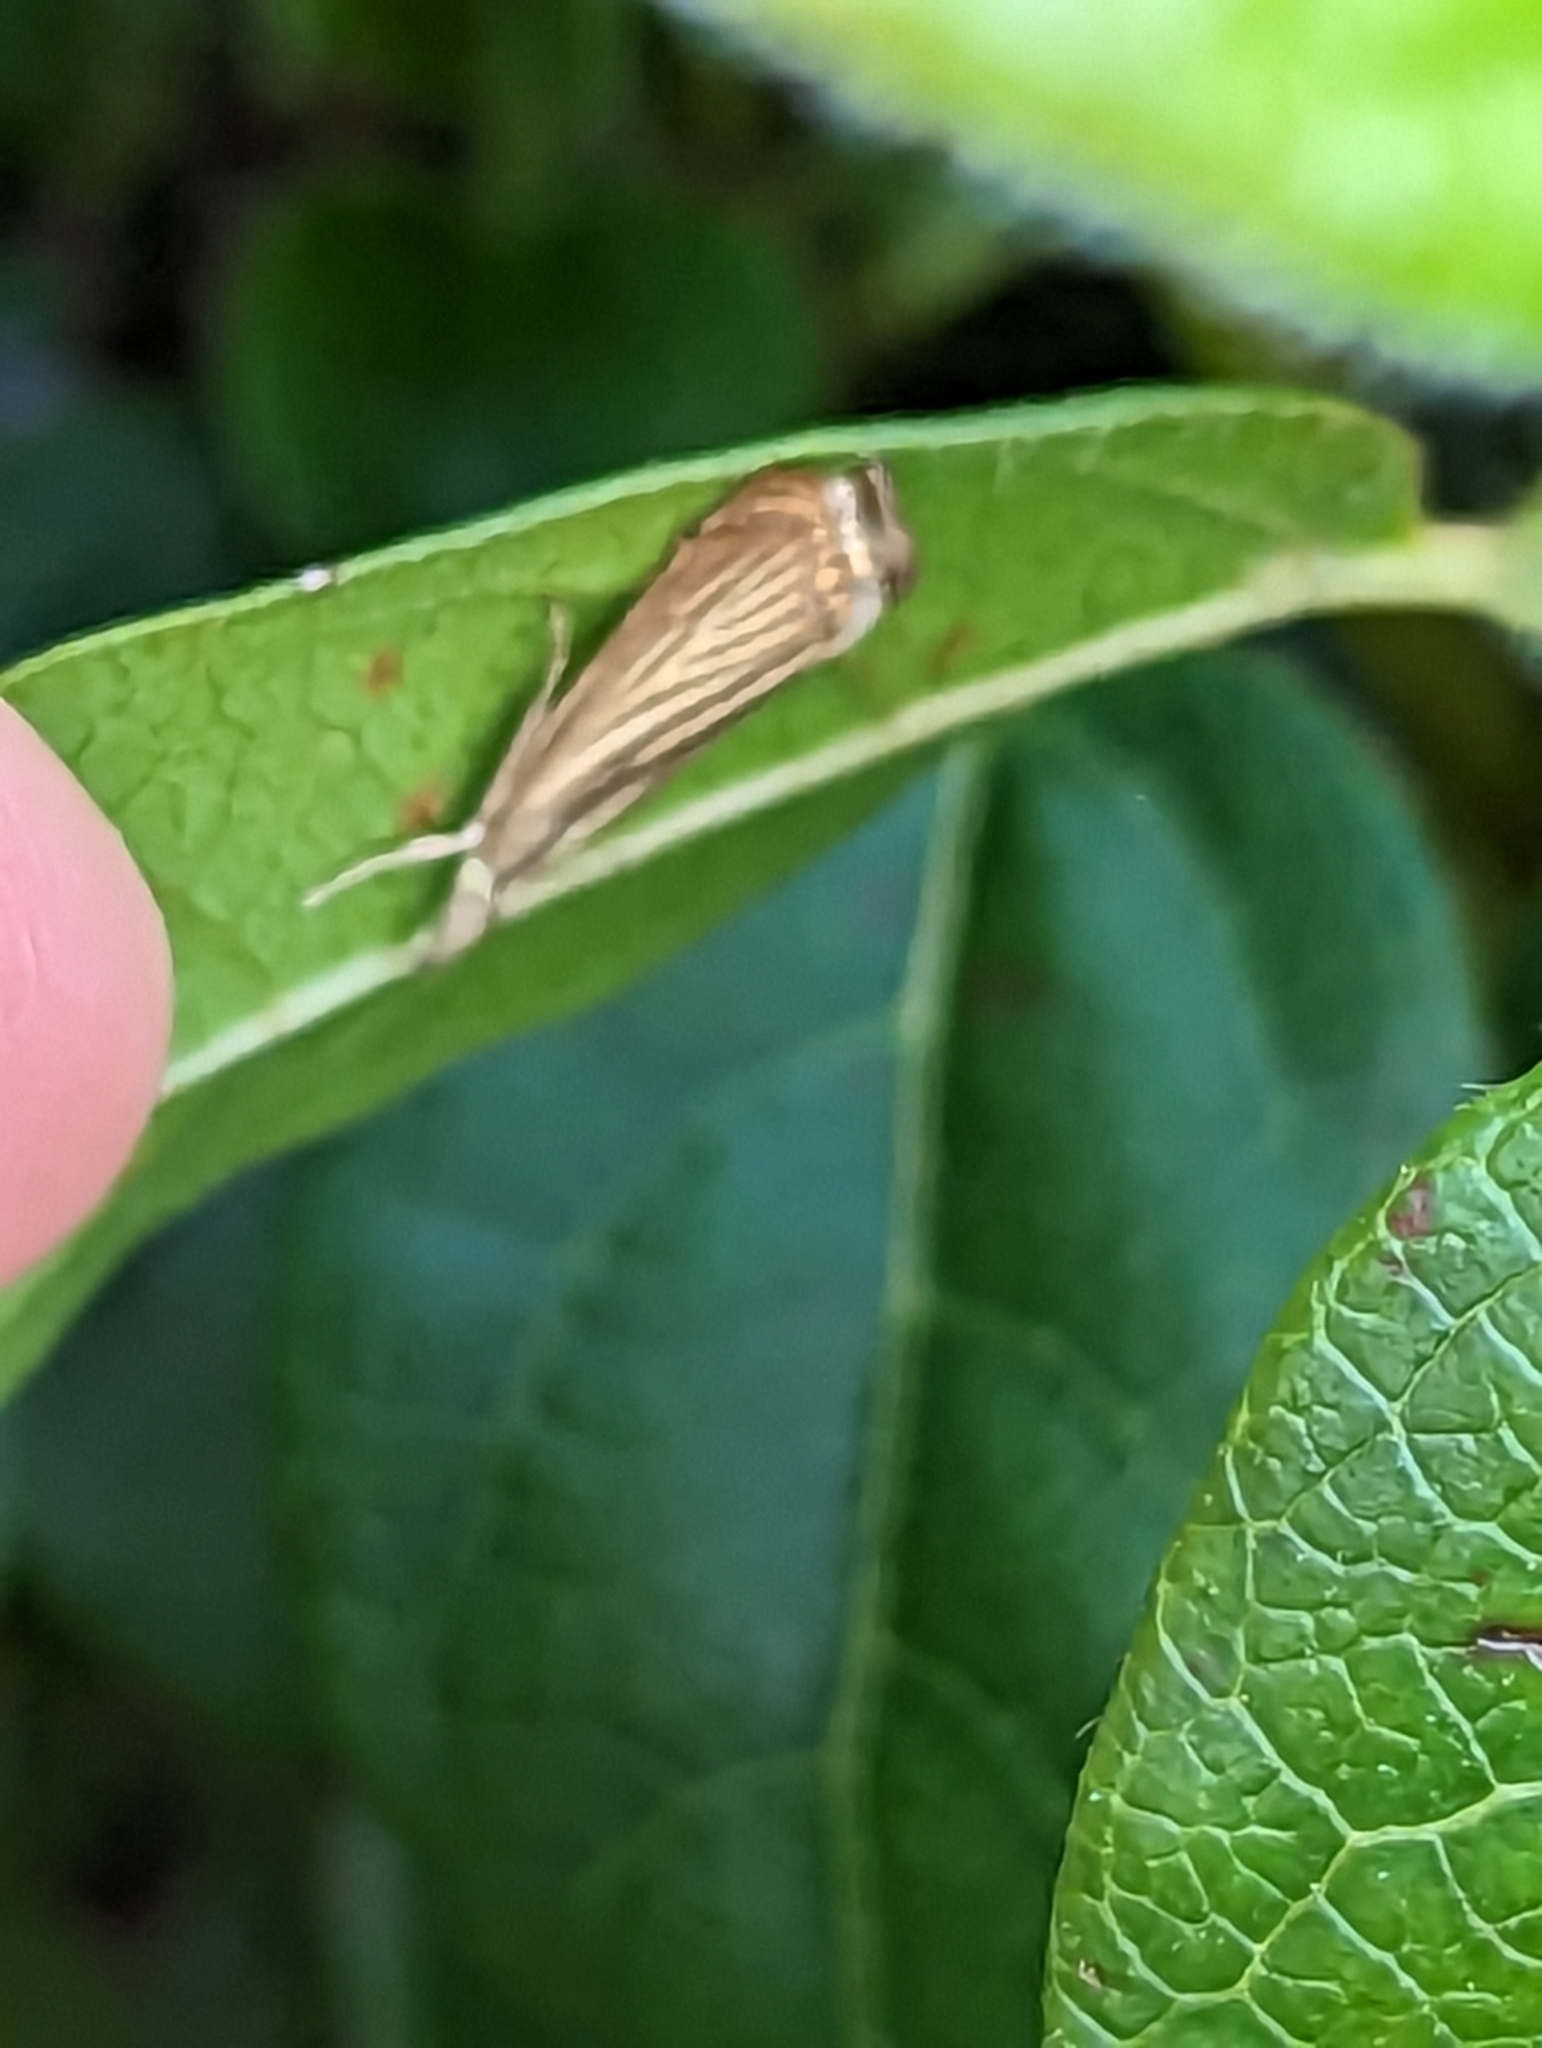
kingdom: Animalia
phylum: Arthropoda
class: Insecta
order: Lepidoptera
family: Crambidae
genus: Chrysoteuchia
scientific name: Chrysoteuchia culmella
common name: Garden grass-veneer
